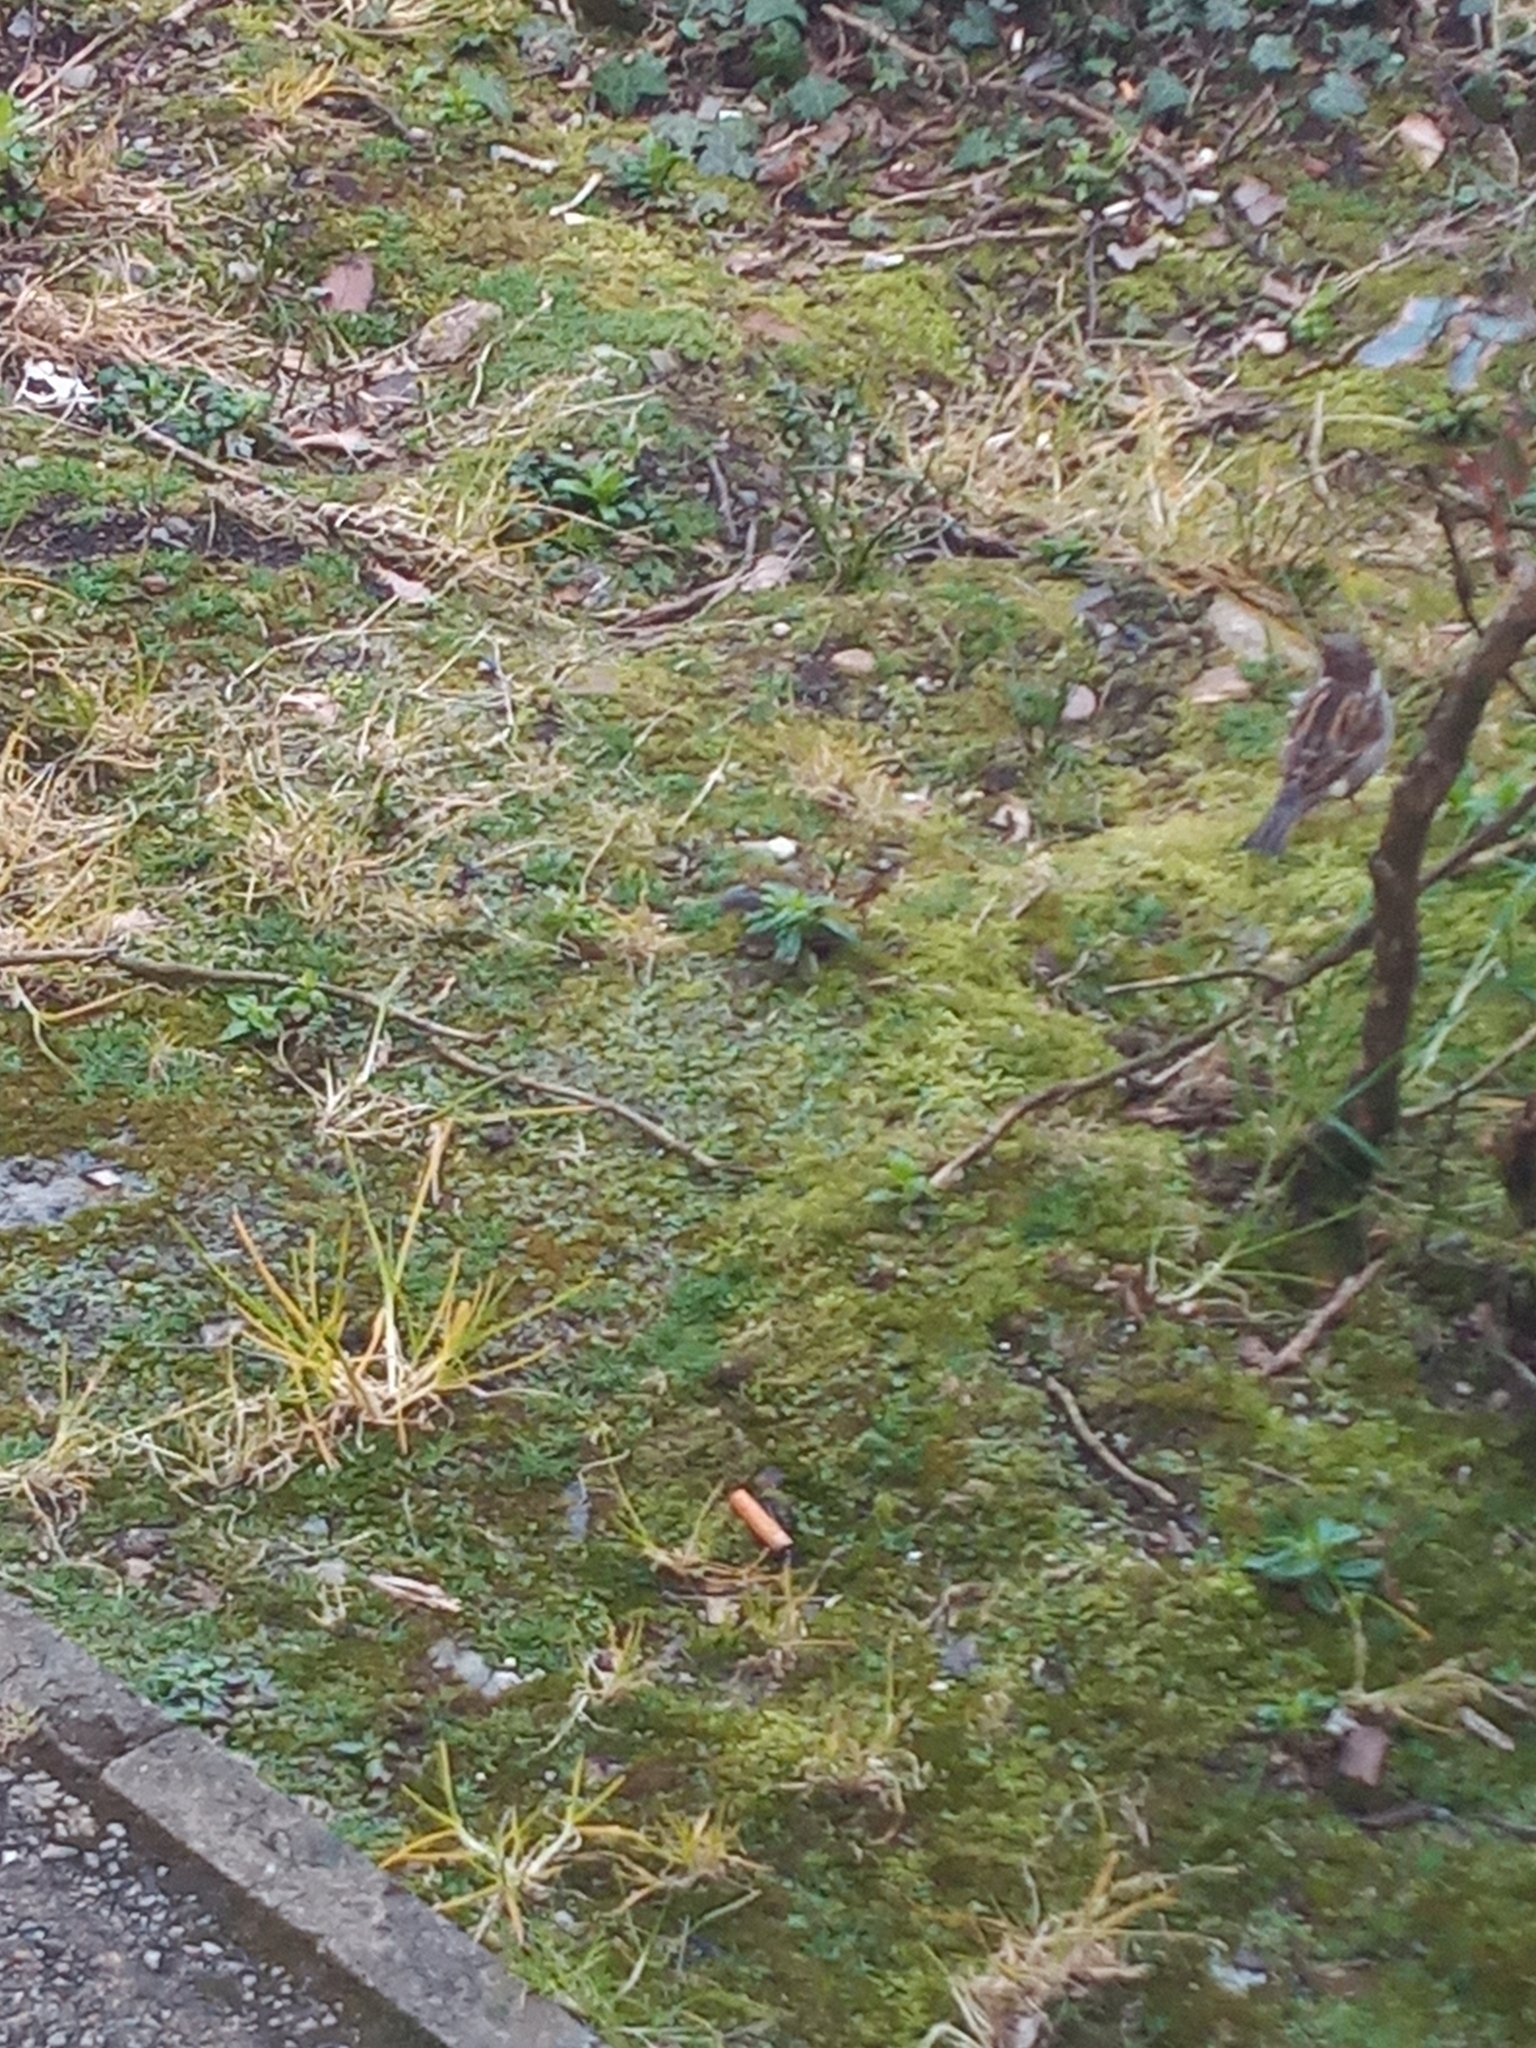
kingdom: Animalia
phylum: Chordata
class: Aves
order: Passeriformes
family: Passeridae
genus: Passer
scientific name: Passer domesticus
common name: House sparrow
